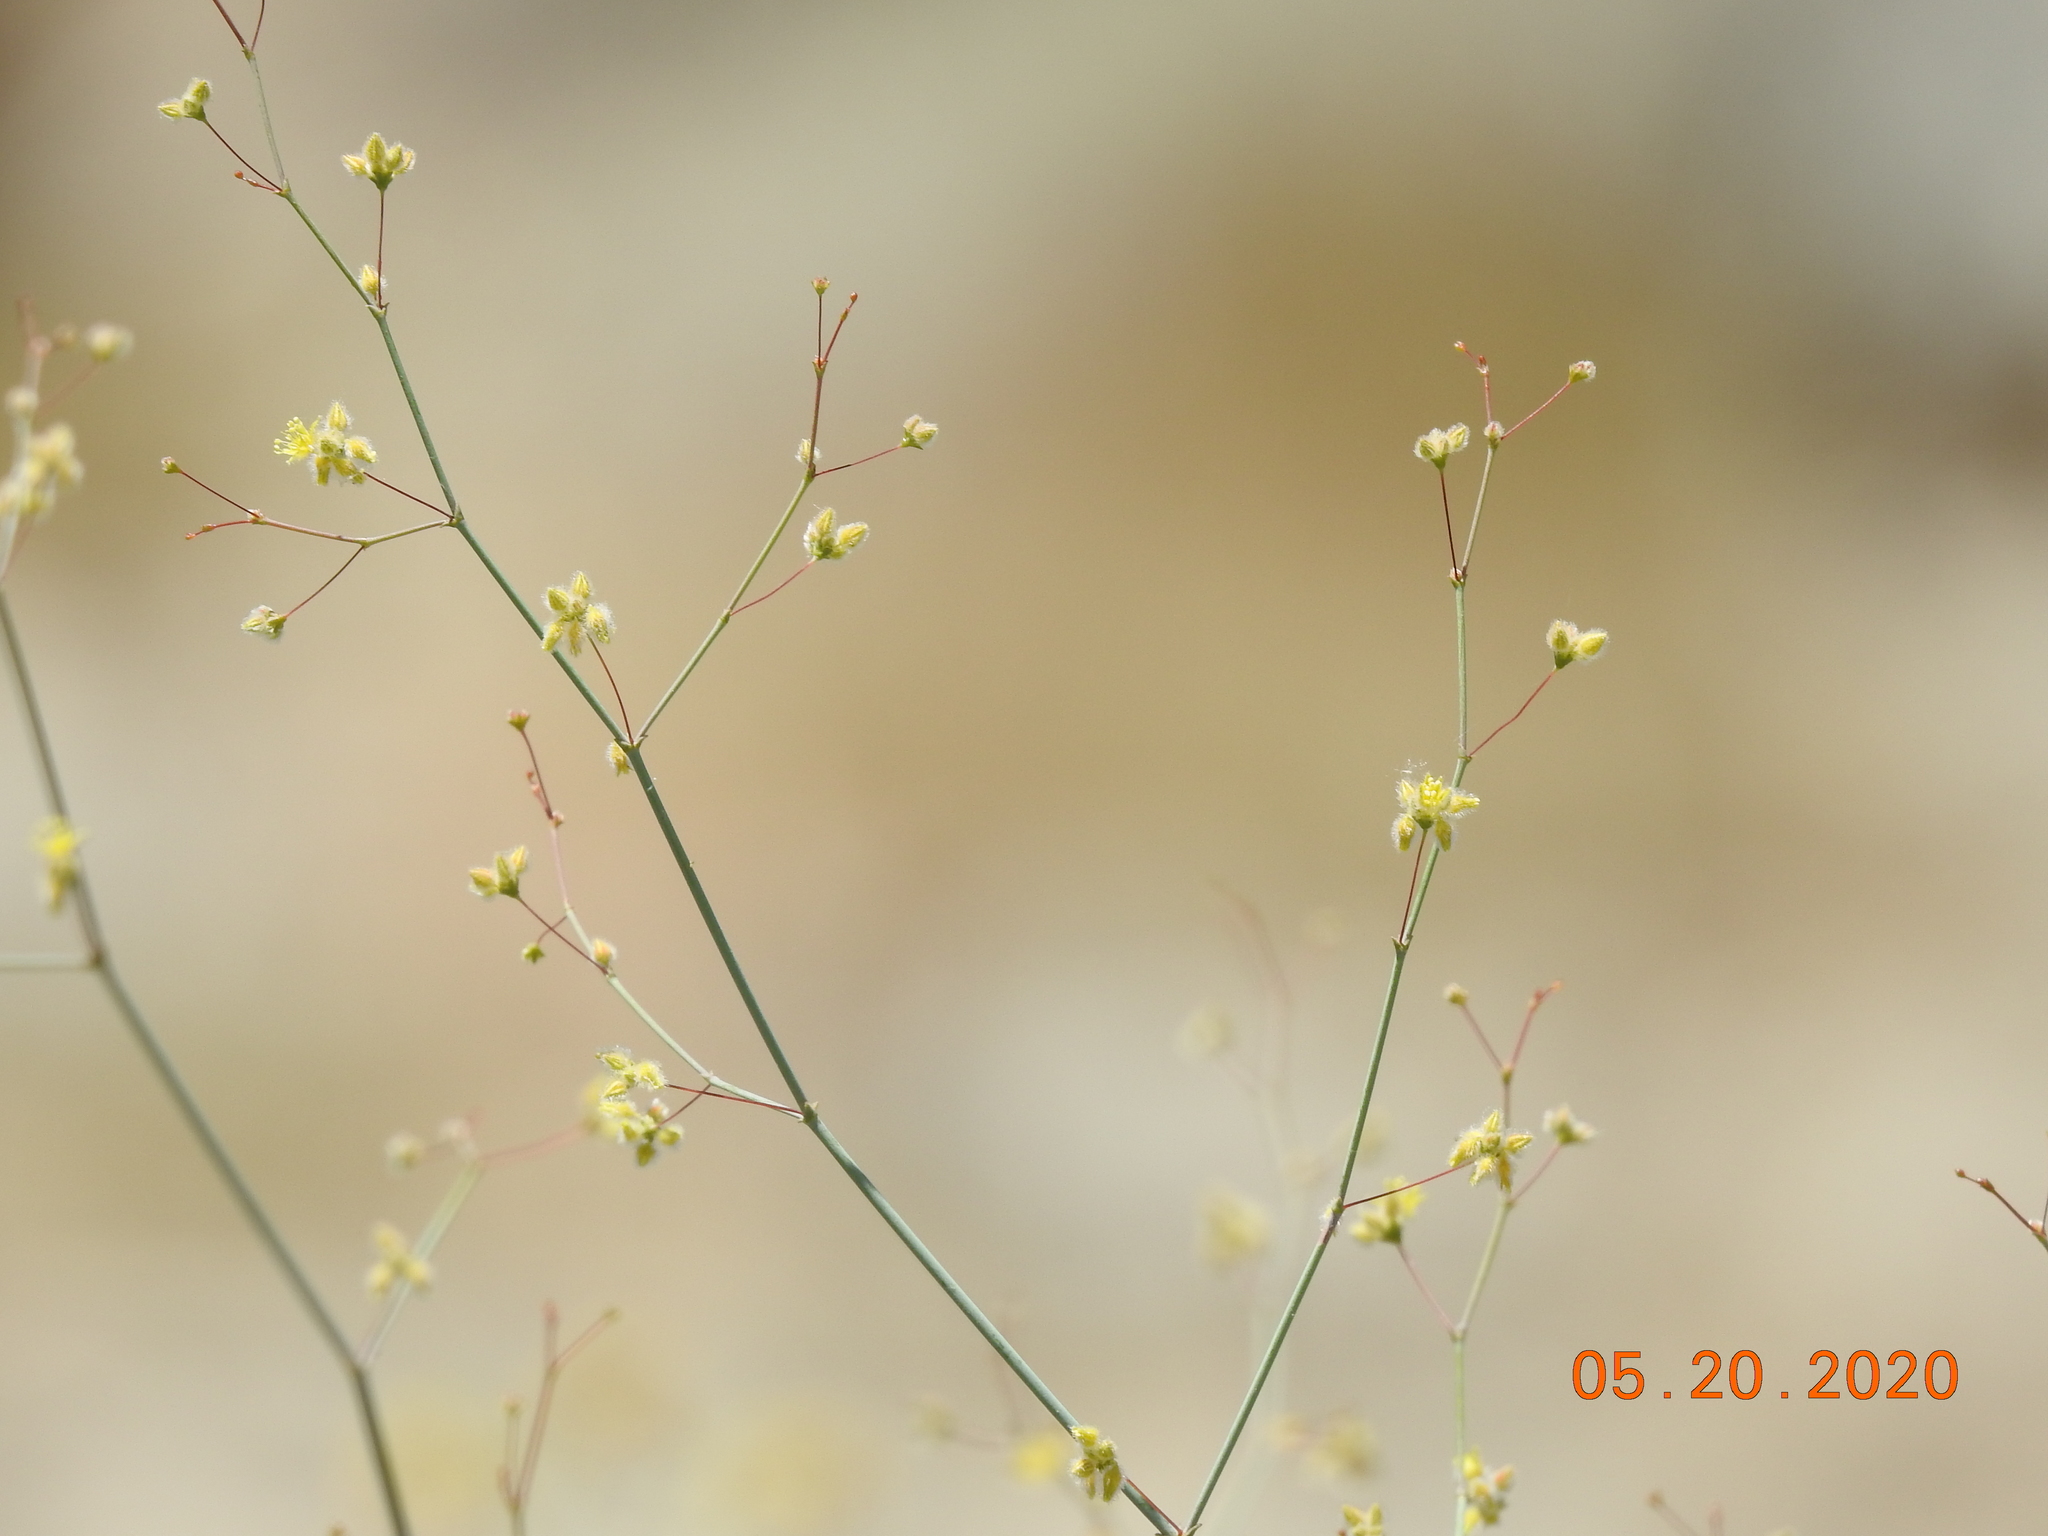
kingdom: Plantae
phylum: Tracheophyta
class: Magnoliopsida
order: Caryophyllales
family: Polygonaceae
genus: Eriogonum
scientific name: Eriogonum inflatum
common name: Desert trumpet
